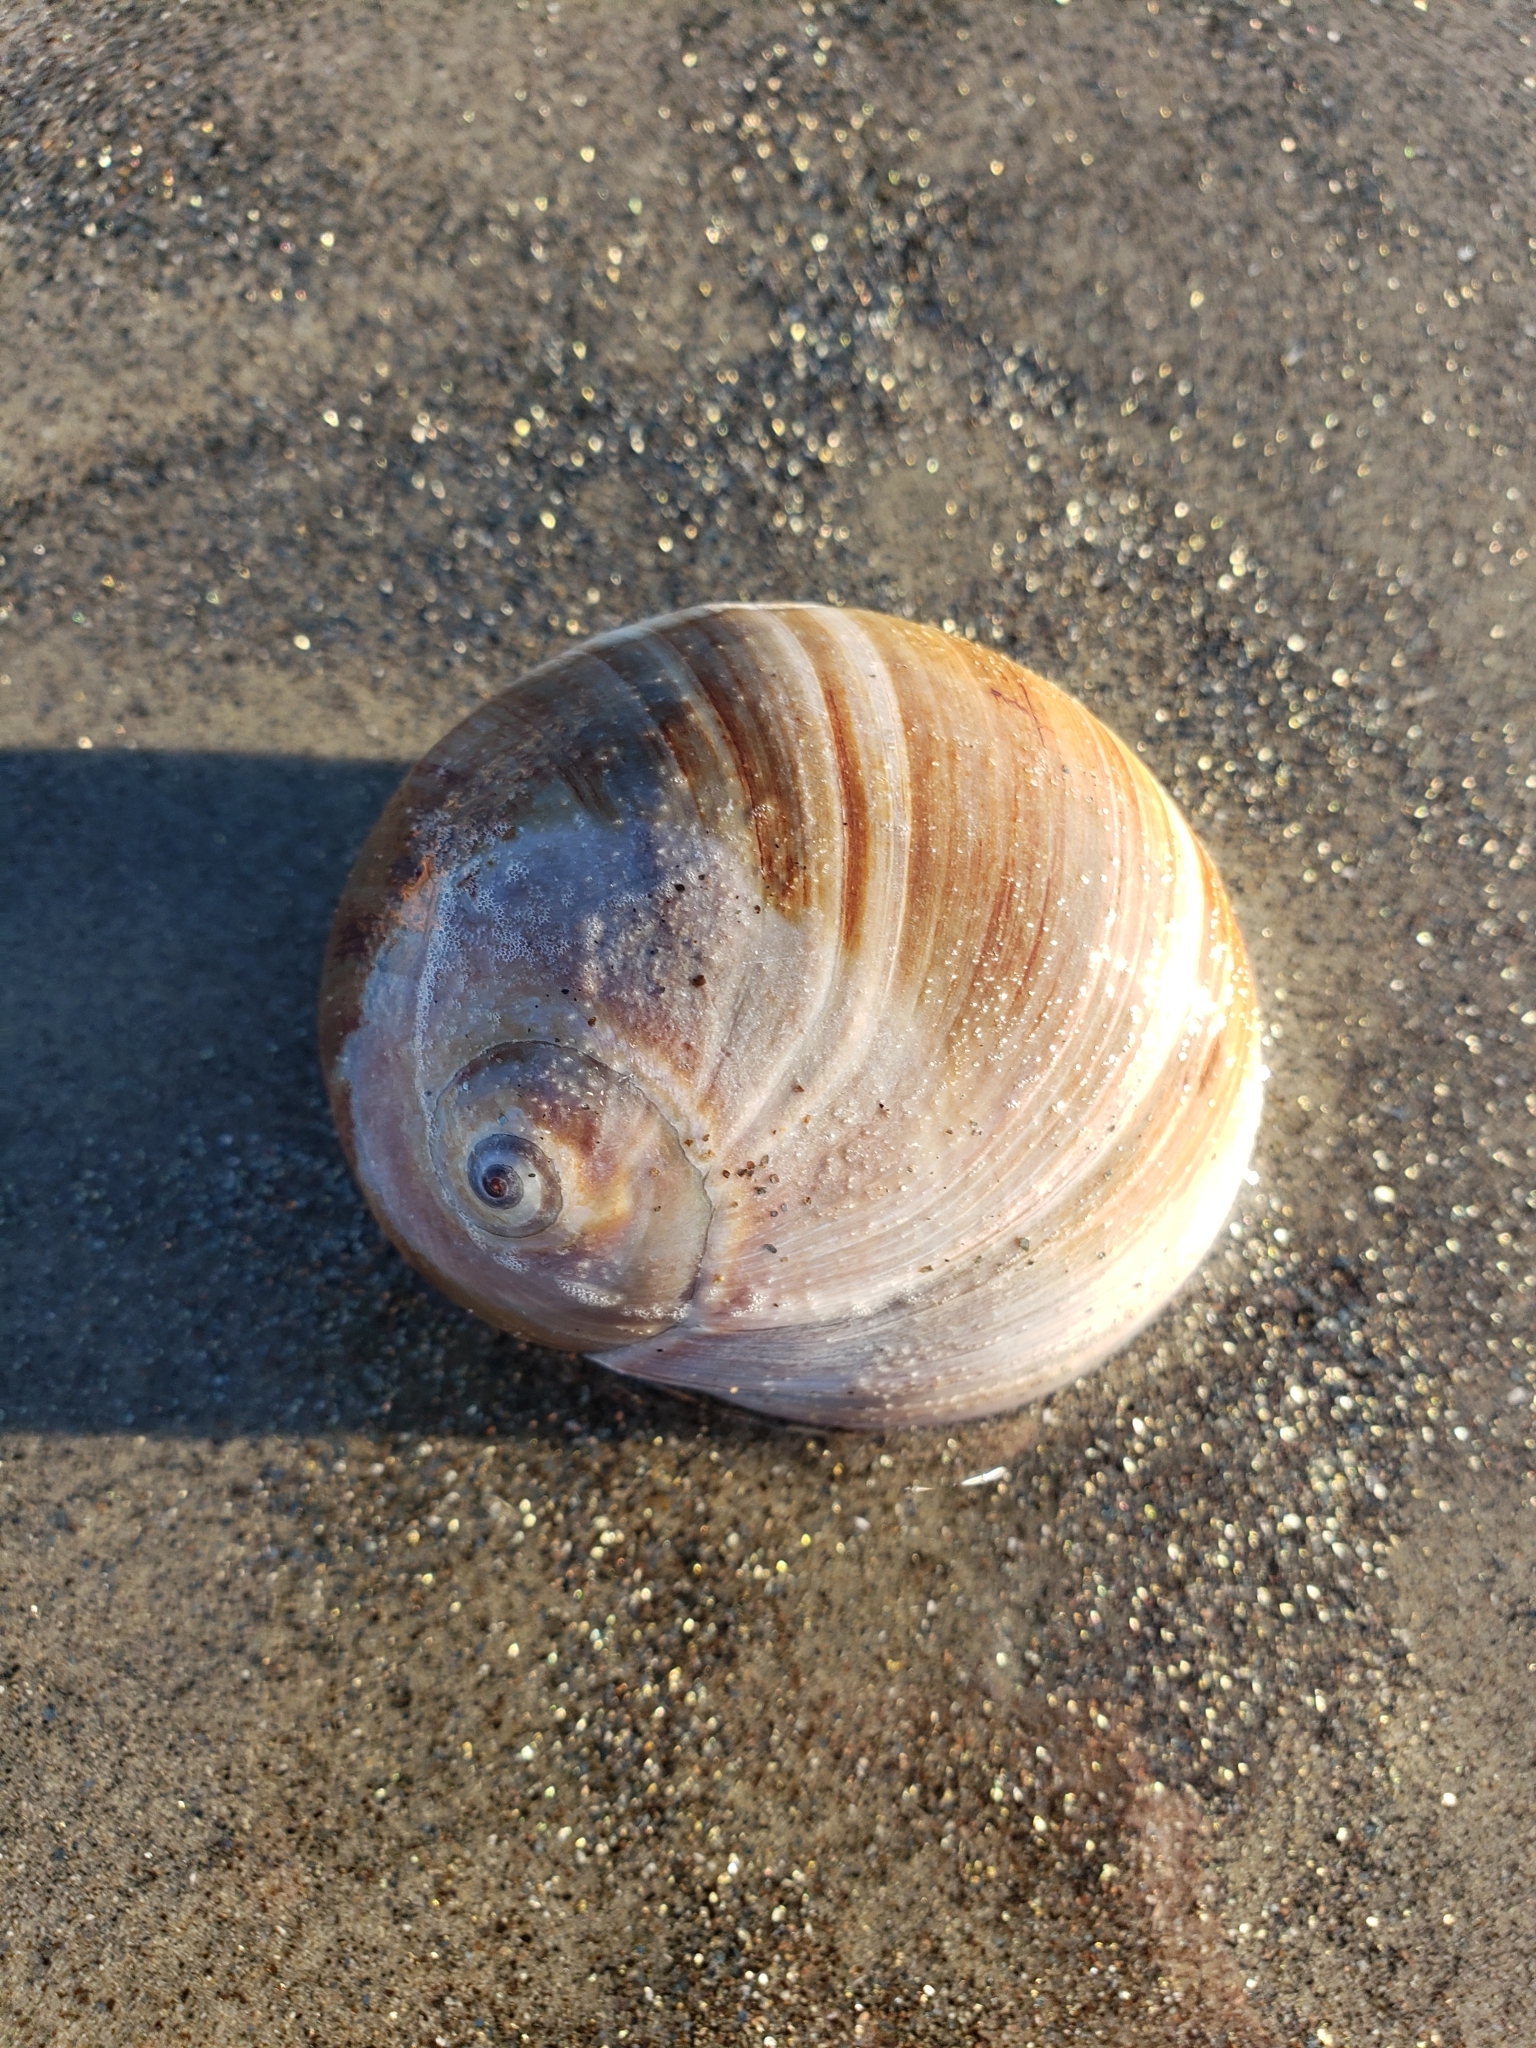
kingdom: Animalia
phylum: Mollusca
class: Gastropoda
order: Littorinimorpha
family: Naticidae
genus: Glossaulax
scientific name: Glossaulax reclusiana
